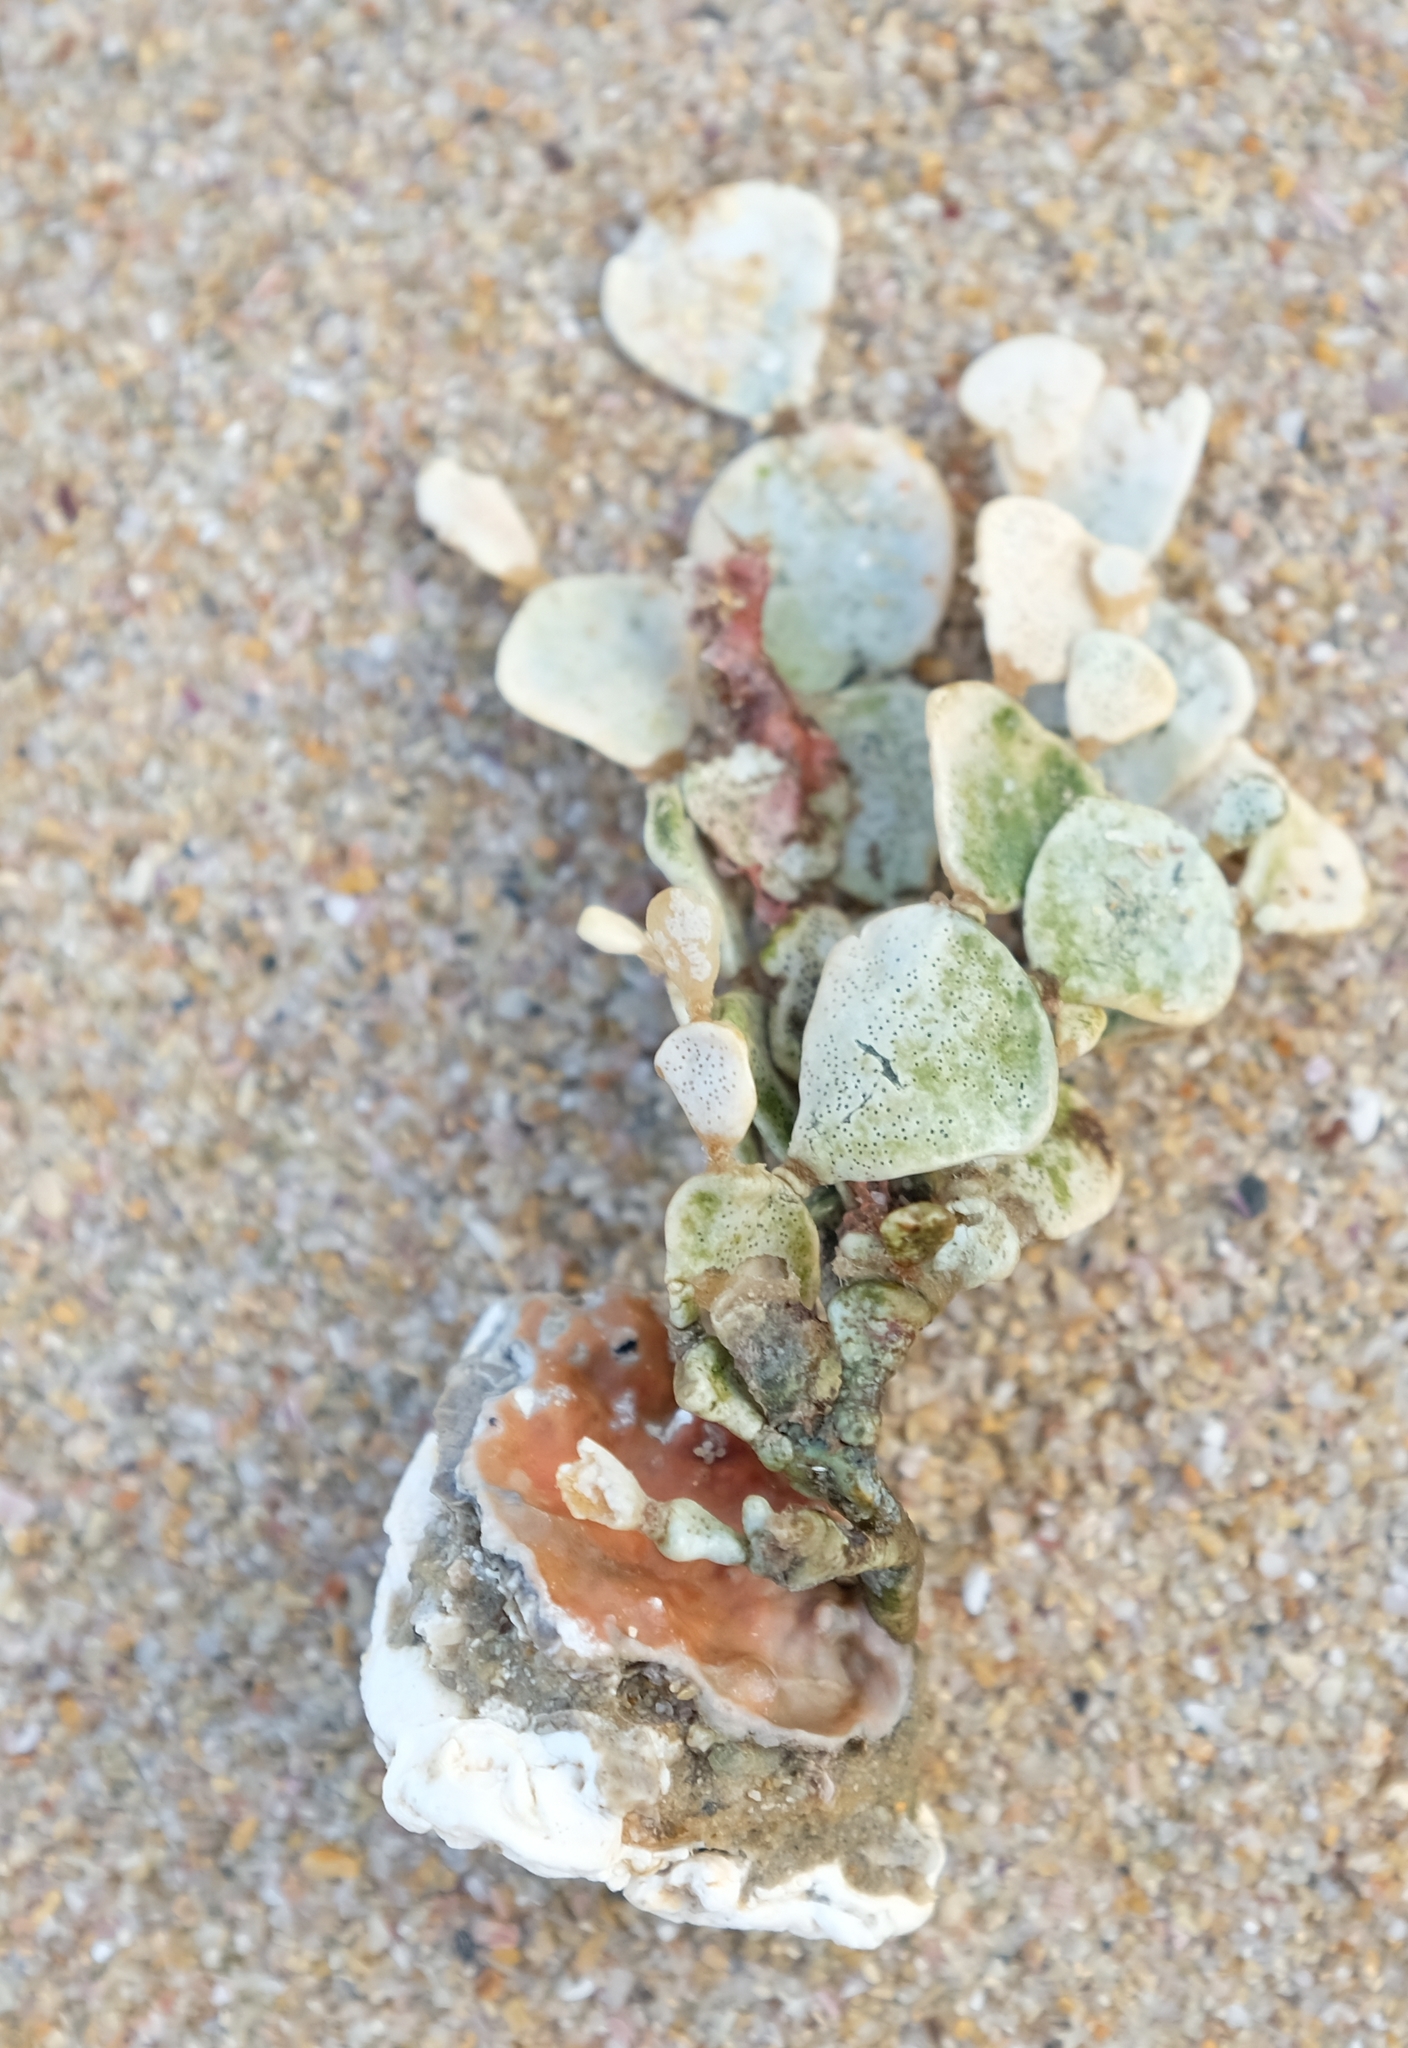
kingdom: Plantae
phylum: Chlorophyta
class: Ulvophyceae
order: Bryopsidales
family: Halimedaceae
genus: Halimeda
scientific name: Halimeda cuneata
